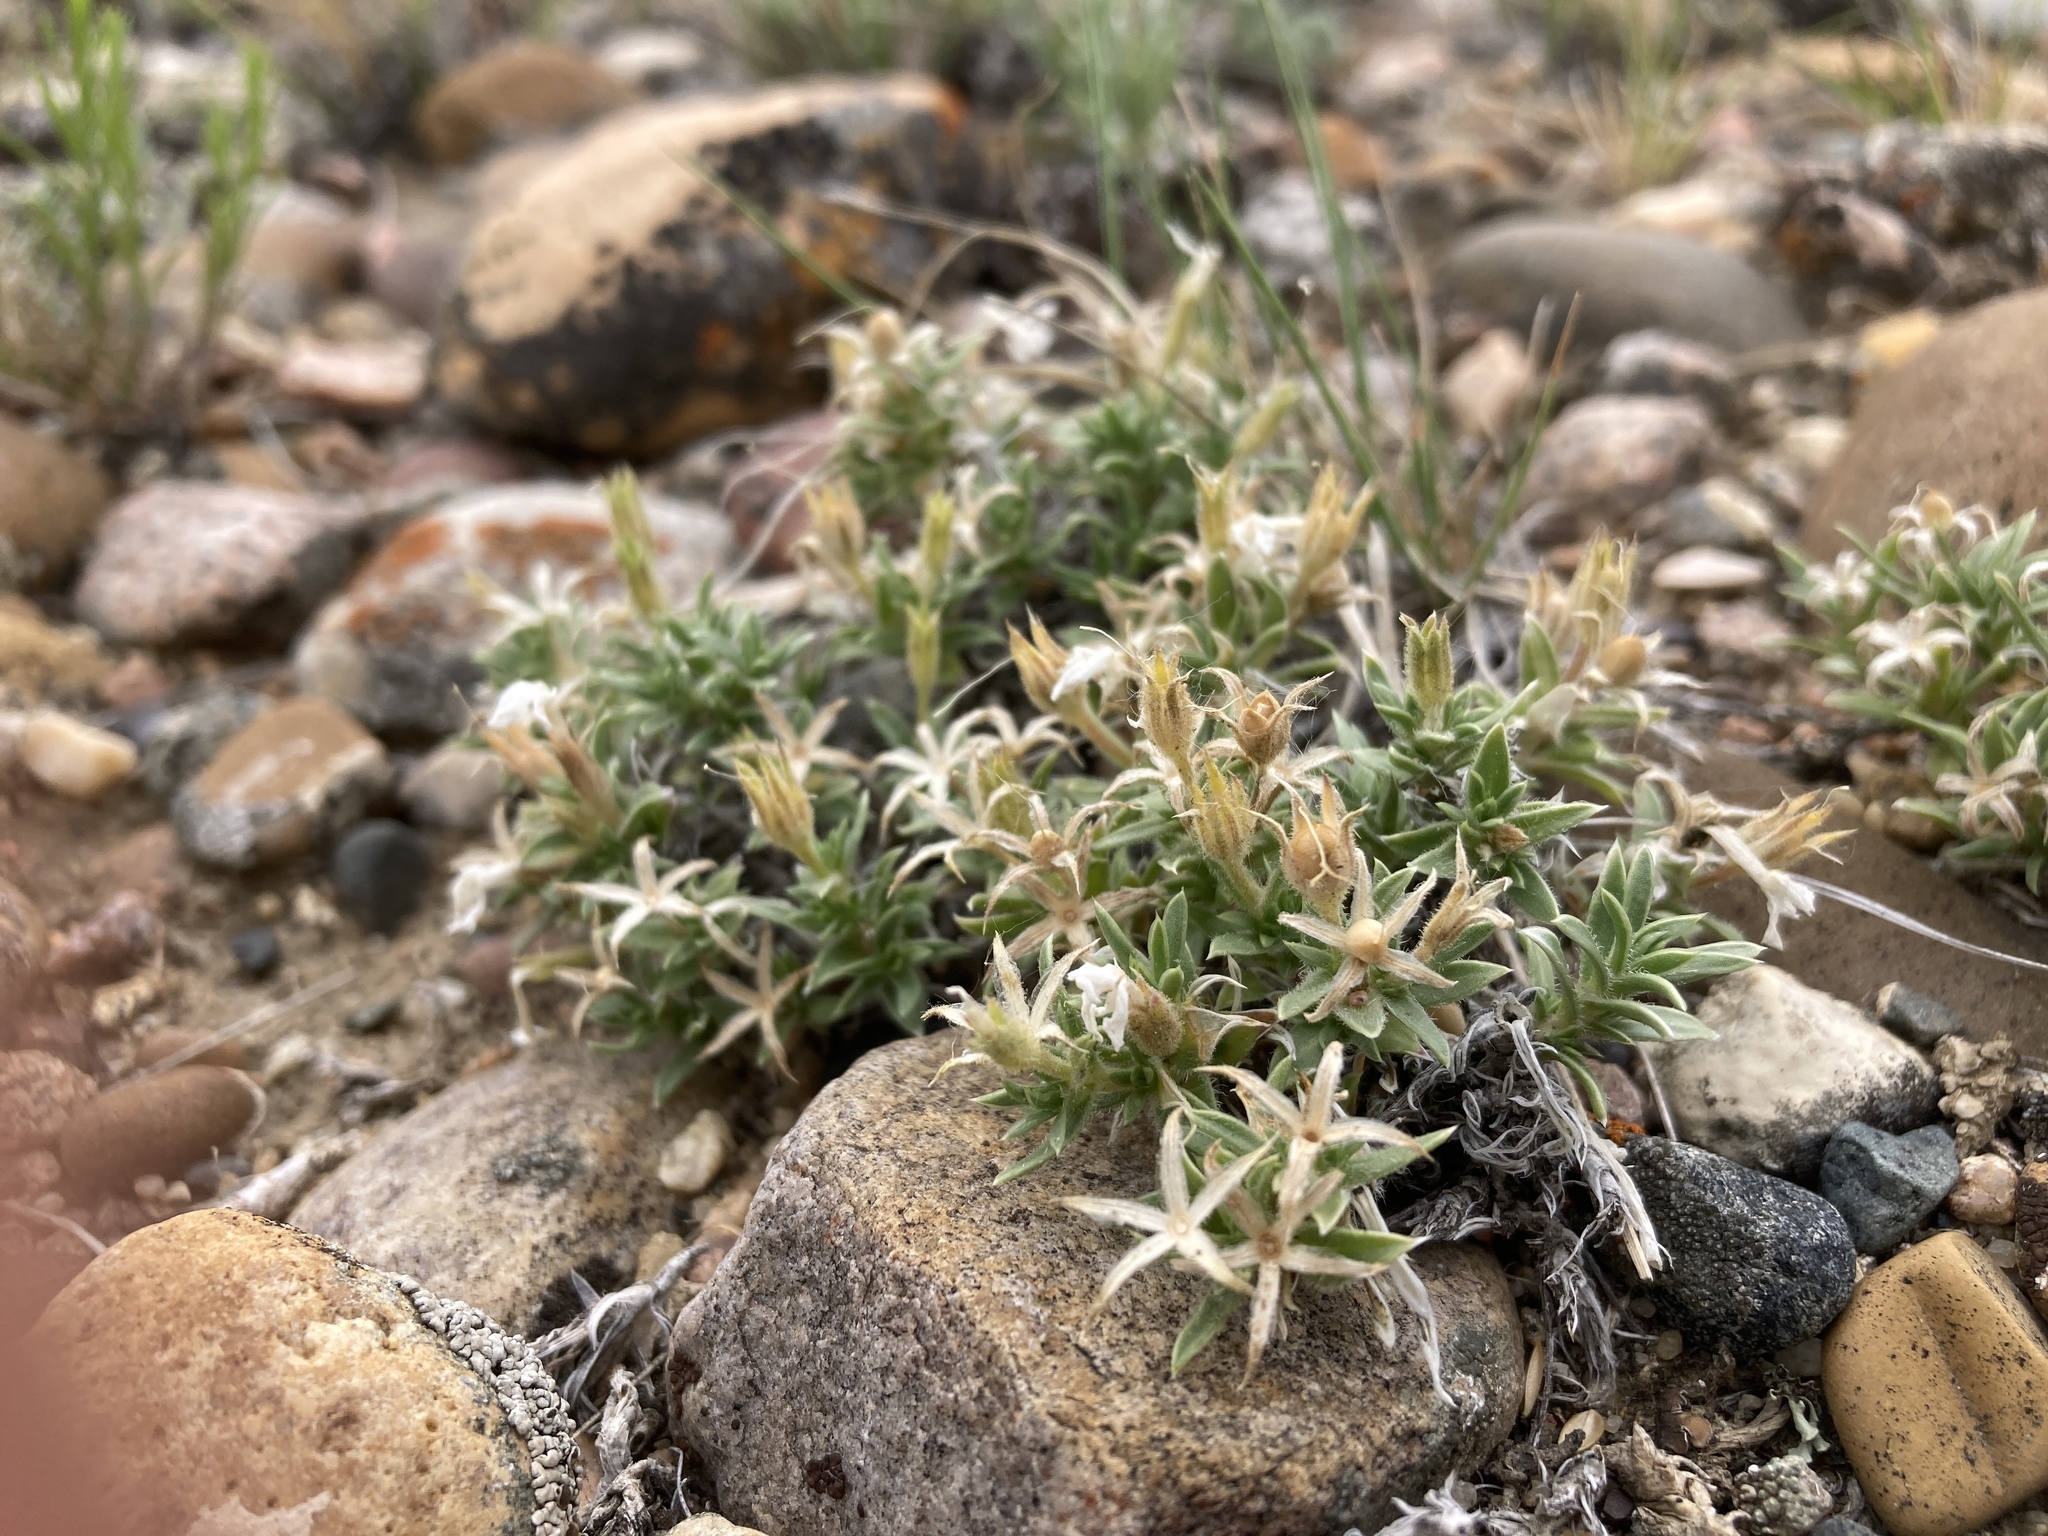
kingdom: Plantae
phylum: Tracheophyta
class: Magnoliopsida
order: Ericales
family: Polemoniaceae
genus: Phlox
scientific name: Phlox alyssifolia
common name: Blue phlox
